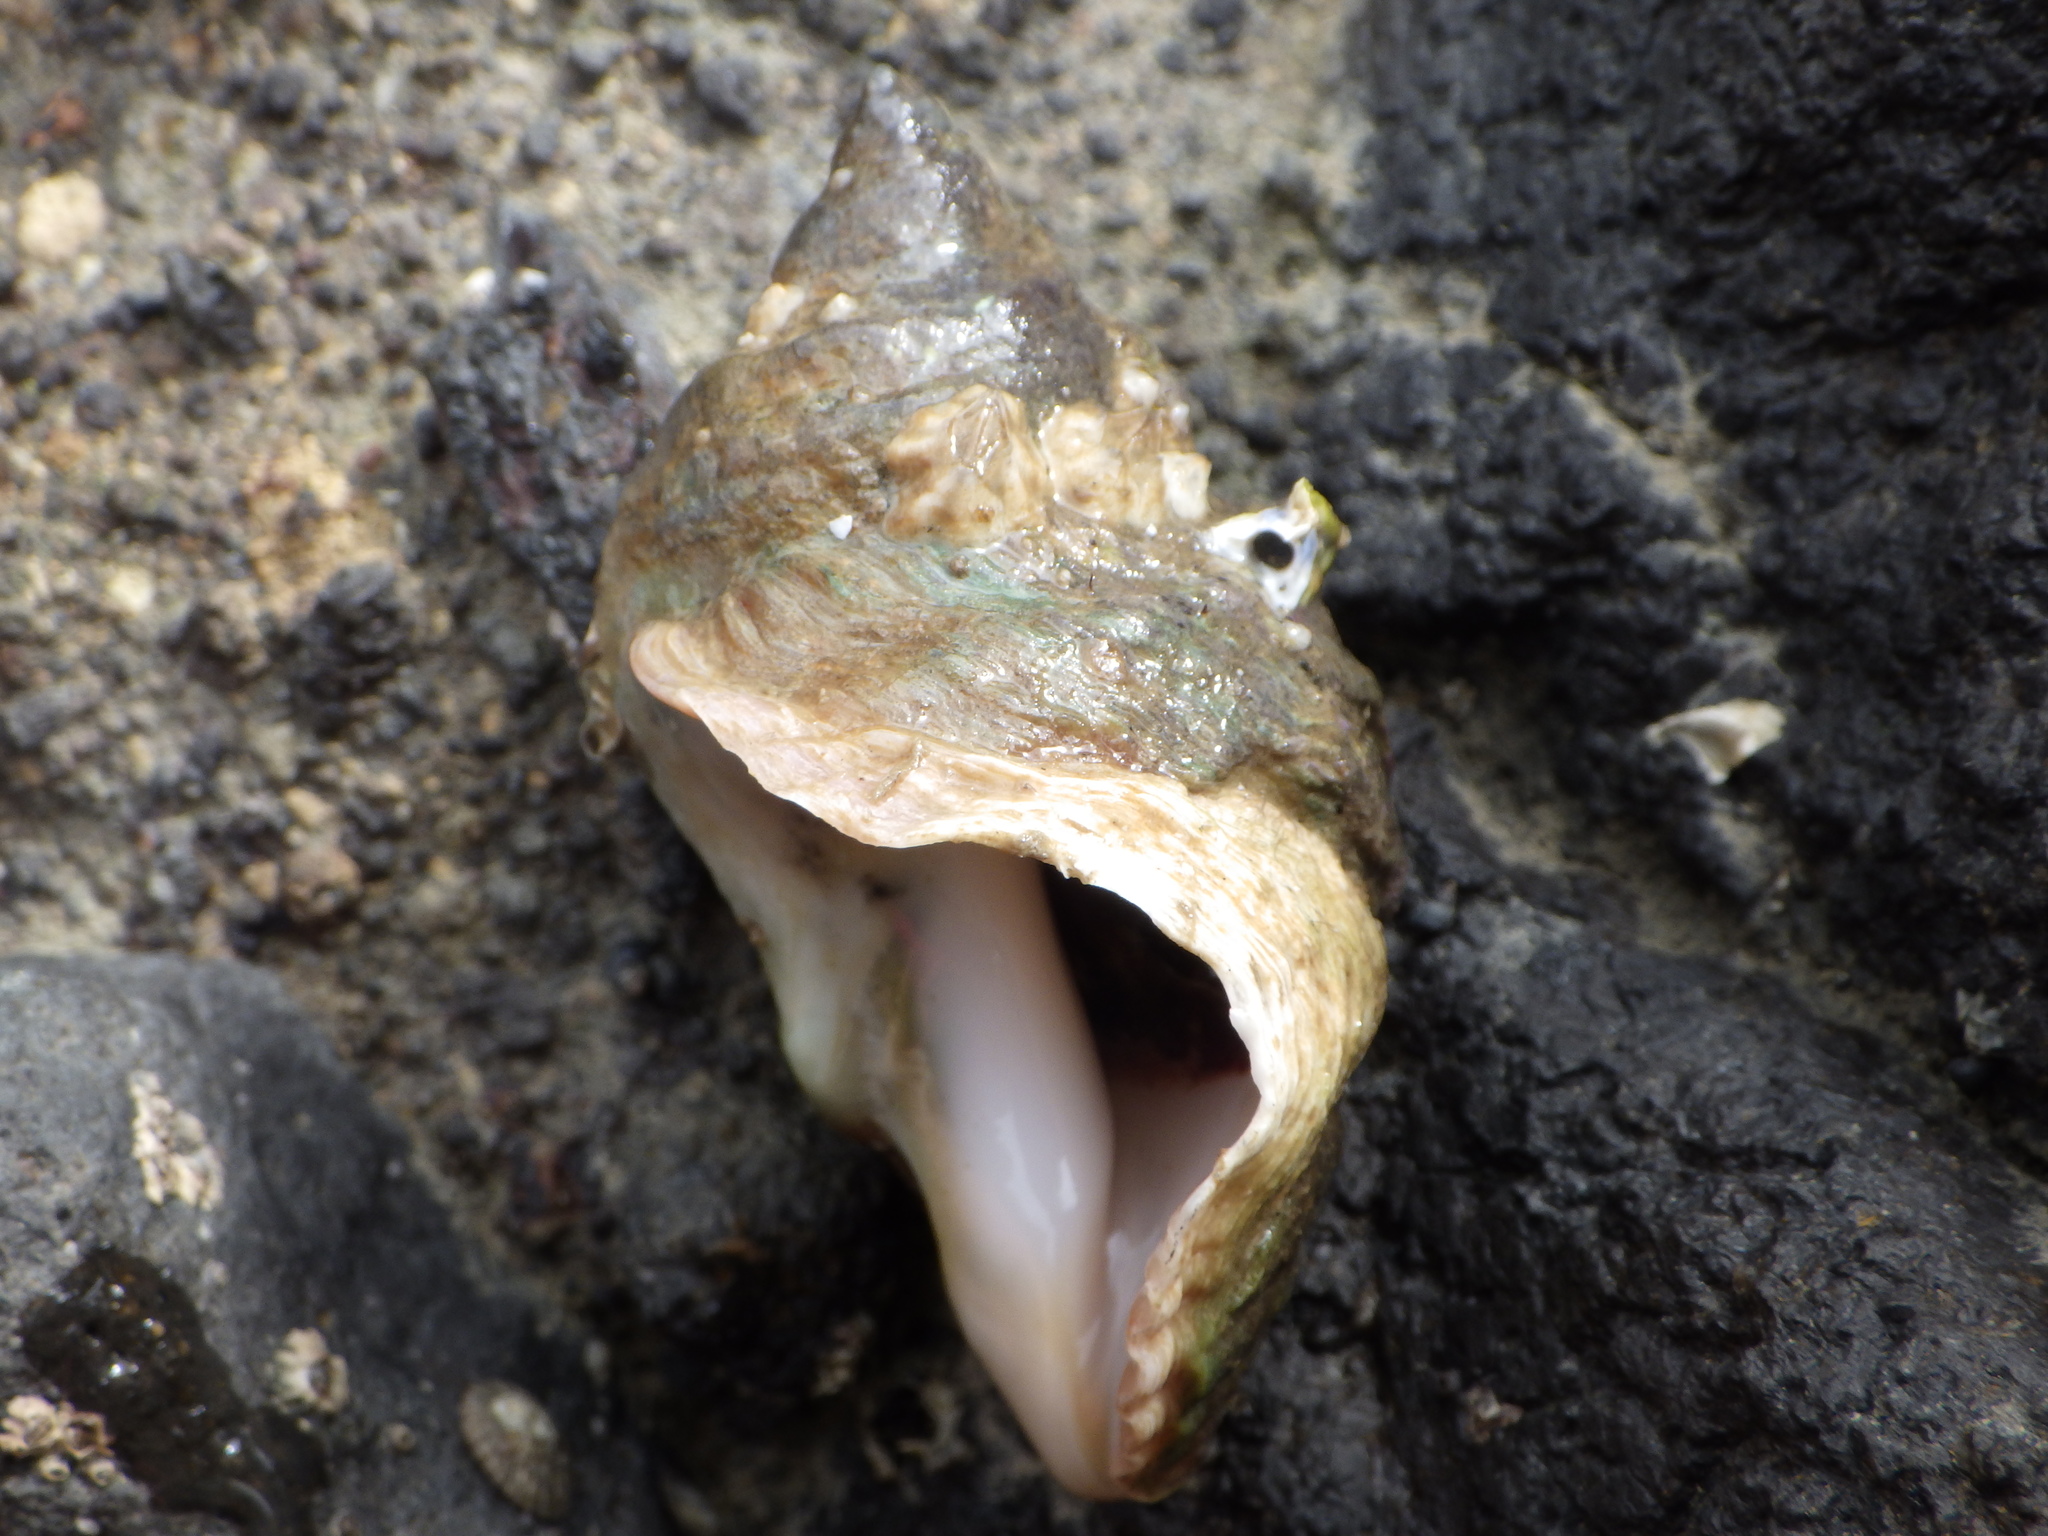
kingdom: Animalia
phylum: Mollusca
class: Gastropoda
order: Neogastropoda
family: Muricidae
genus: Dicathais
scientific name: Dicathais orbita
